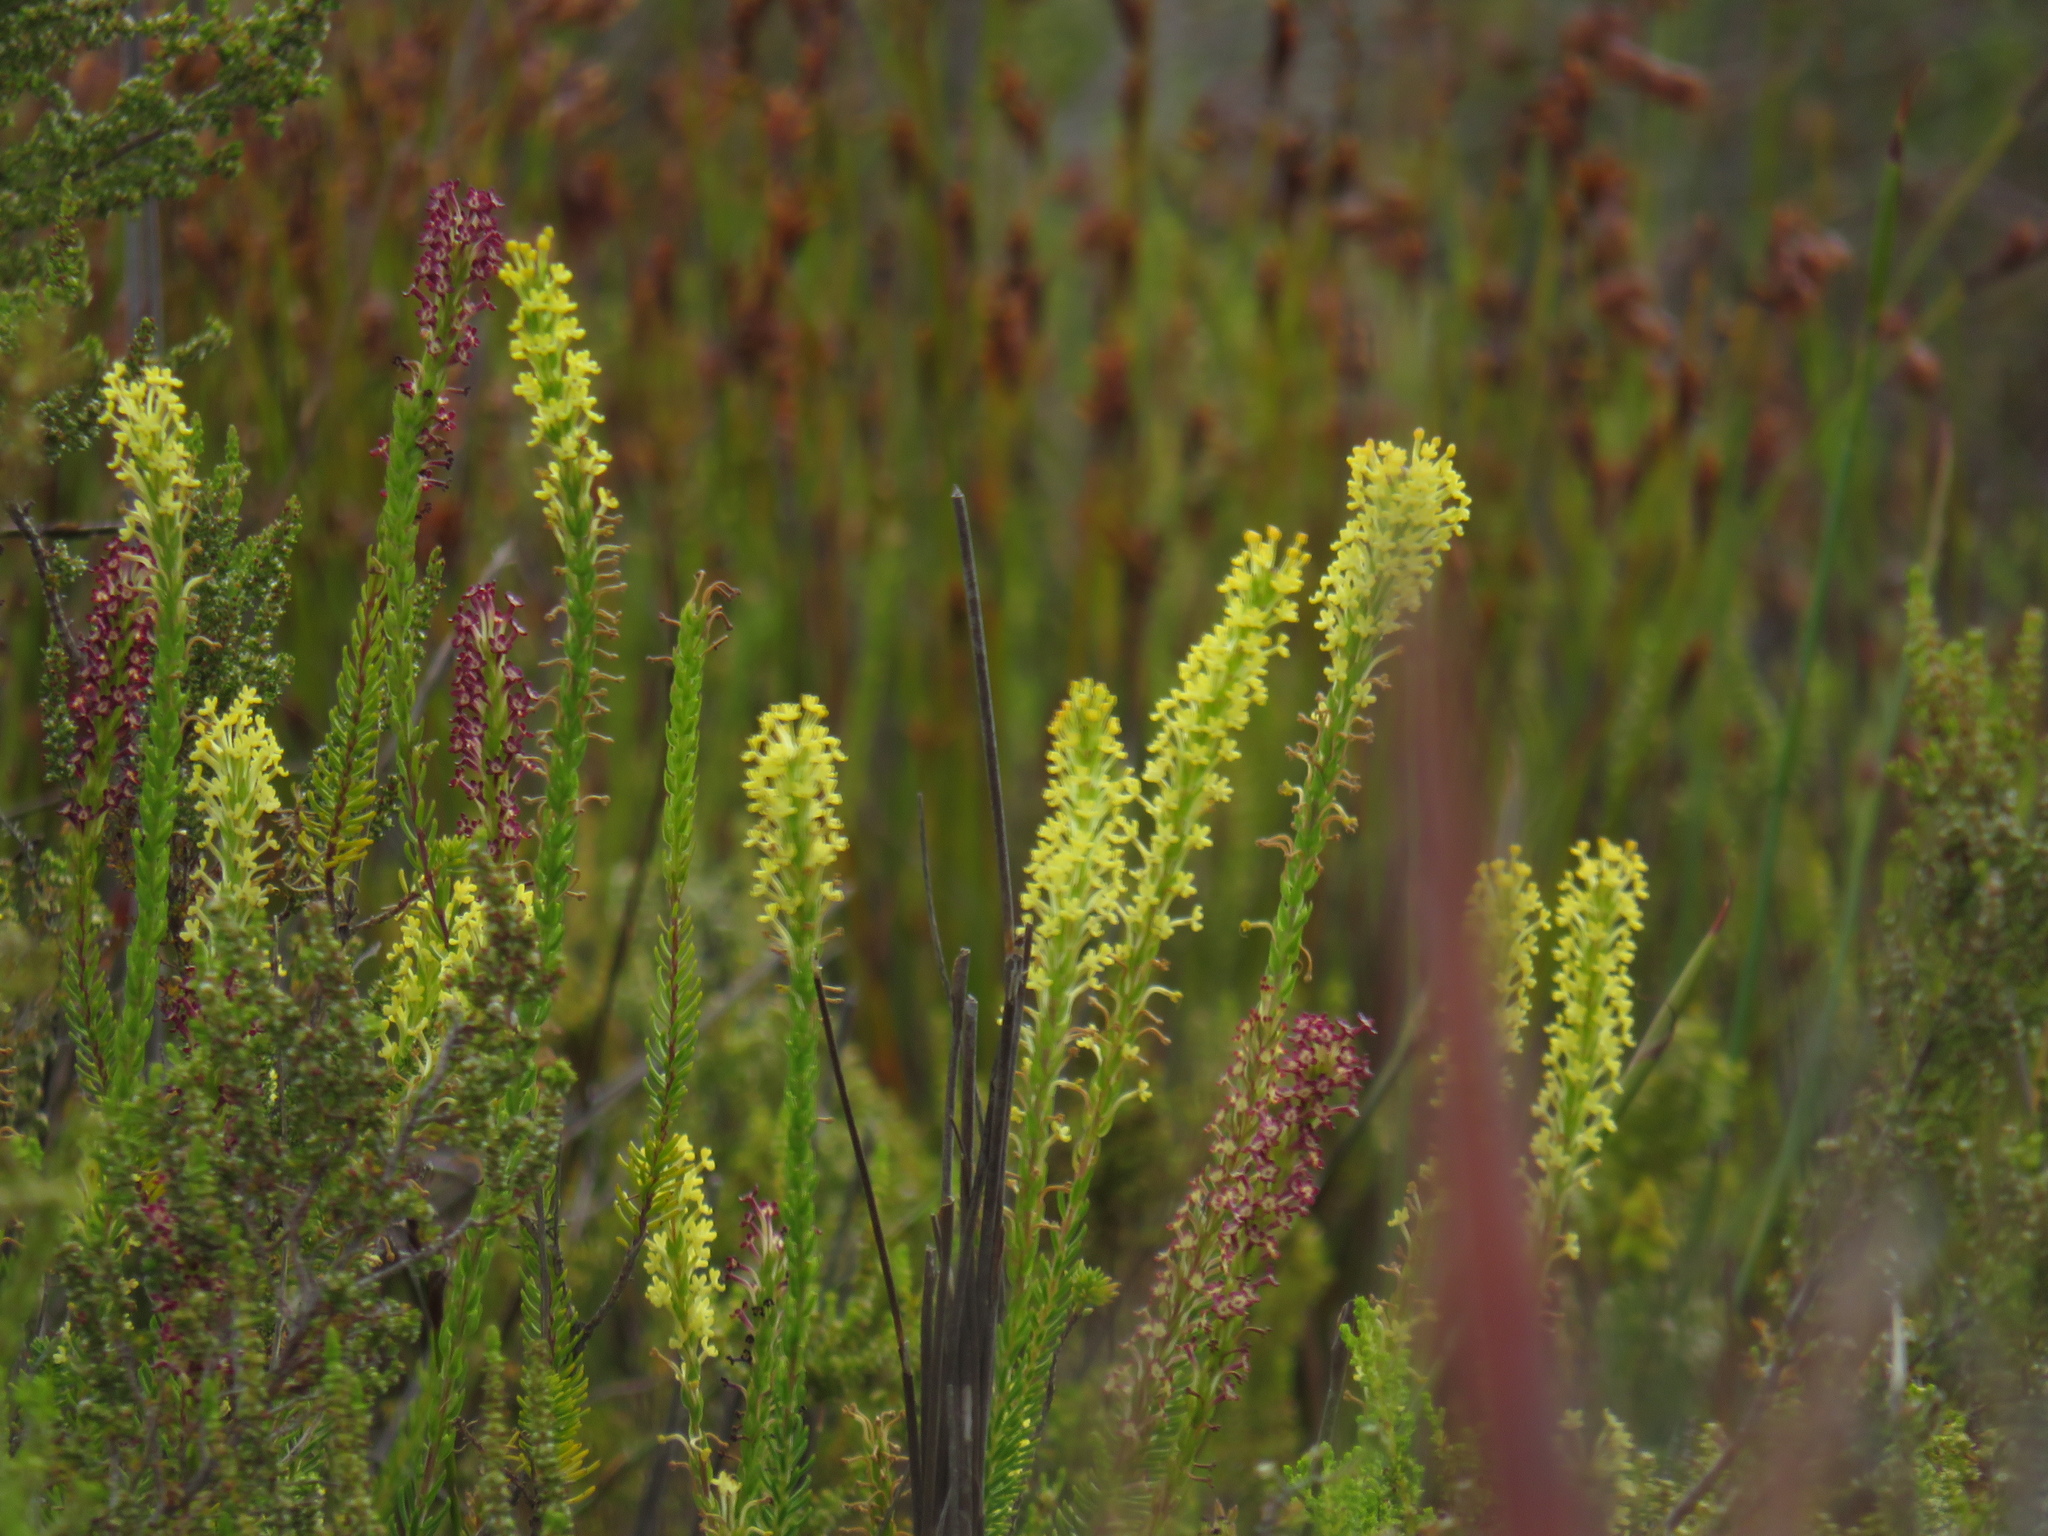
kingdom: Plantae
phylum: Tracheophyta
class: Magnoliopsida
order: Lamiales
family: Scrophulariaceae
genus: Microdon
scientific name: Microdon dubius
